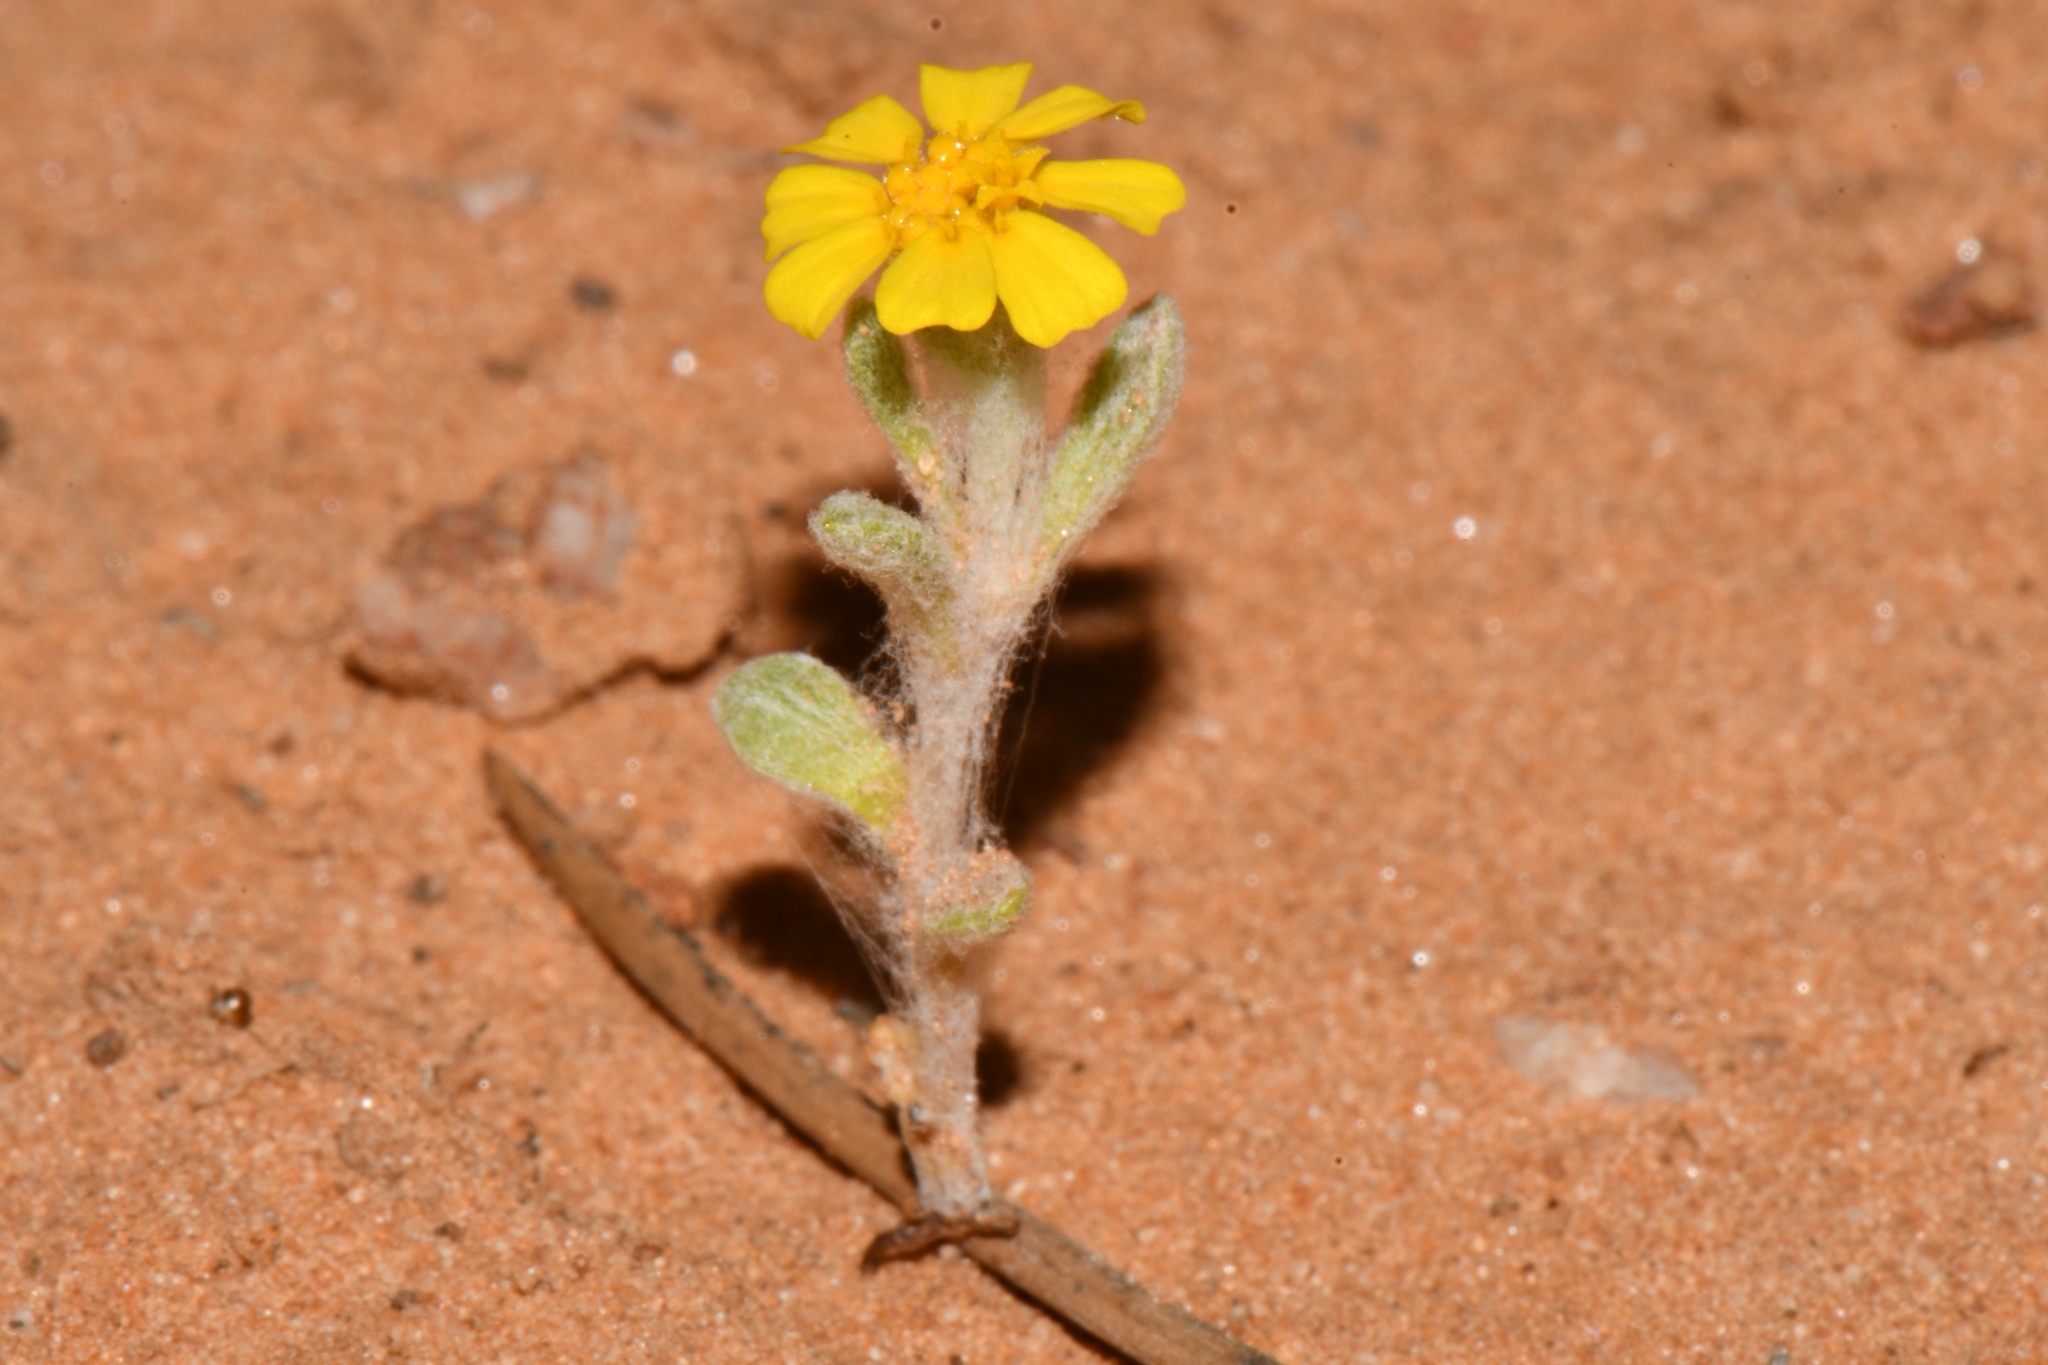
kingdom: Plantae
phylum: Tracheophyta
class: Magnoliopsida
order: Asterales
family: Asteraceae
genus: Eriophyllum
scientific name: Eriophyllum wallacei
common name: Wallace's woolly daisy
